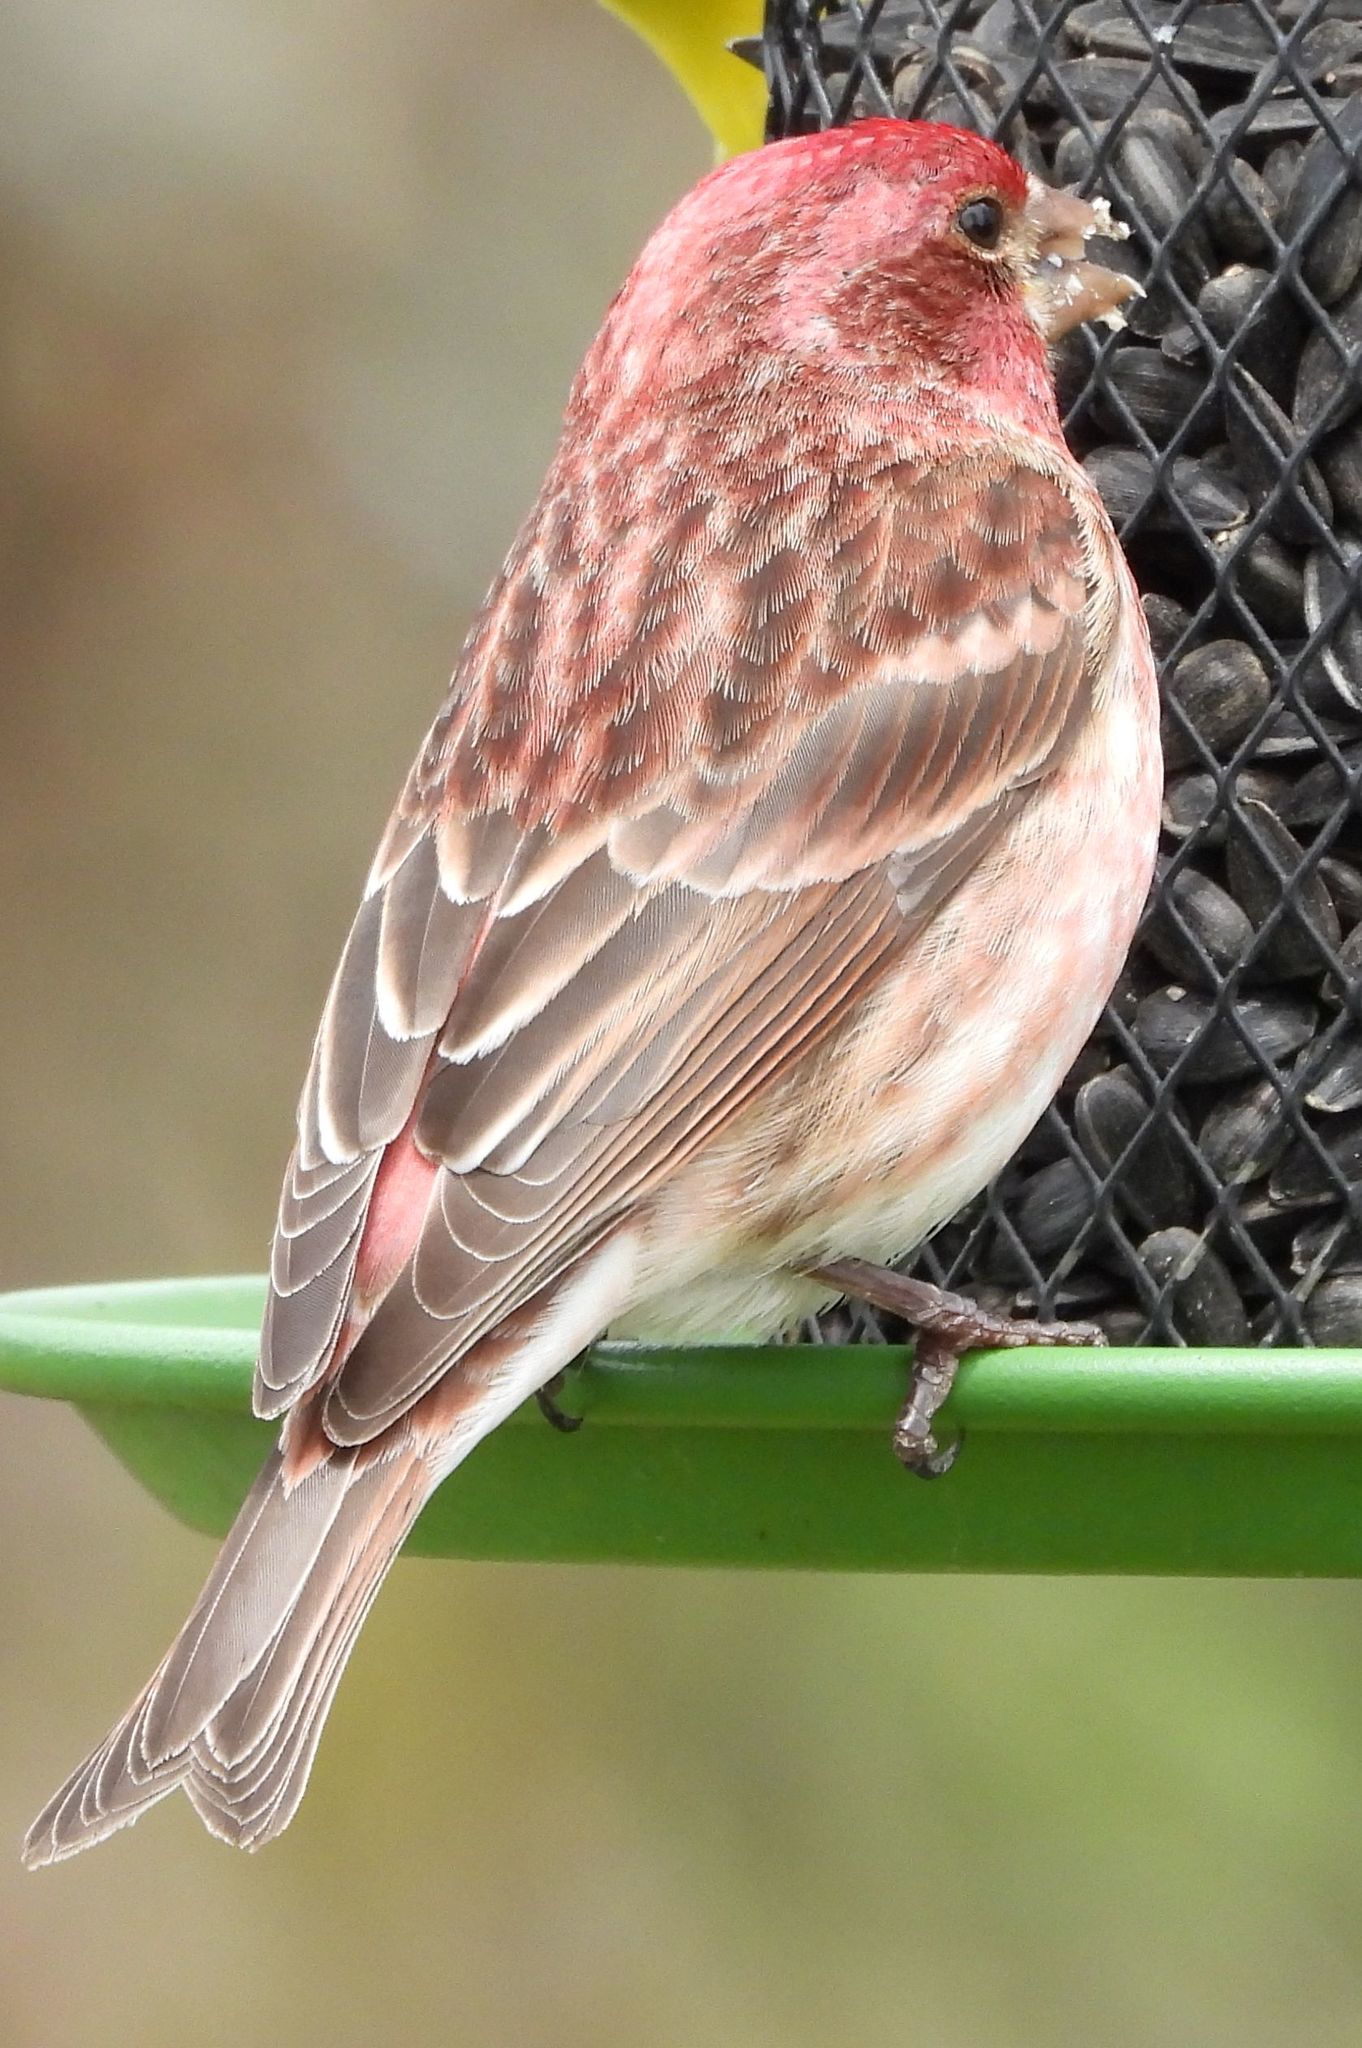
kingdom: Animalia
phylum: Chordata
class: Aves
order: Passeriformes
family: Fringillidae
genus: Haemorhous
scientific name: Haemorhous purpureus
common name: Purple finch
